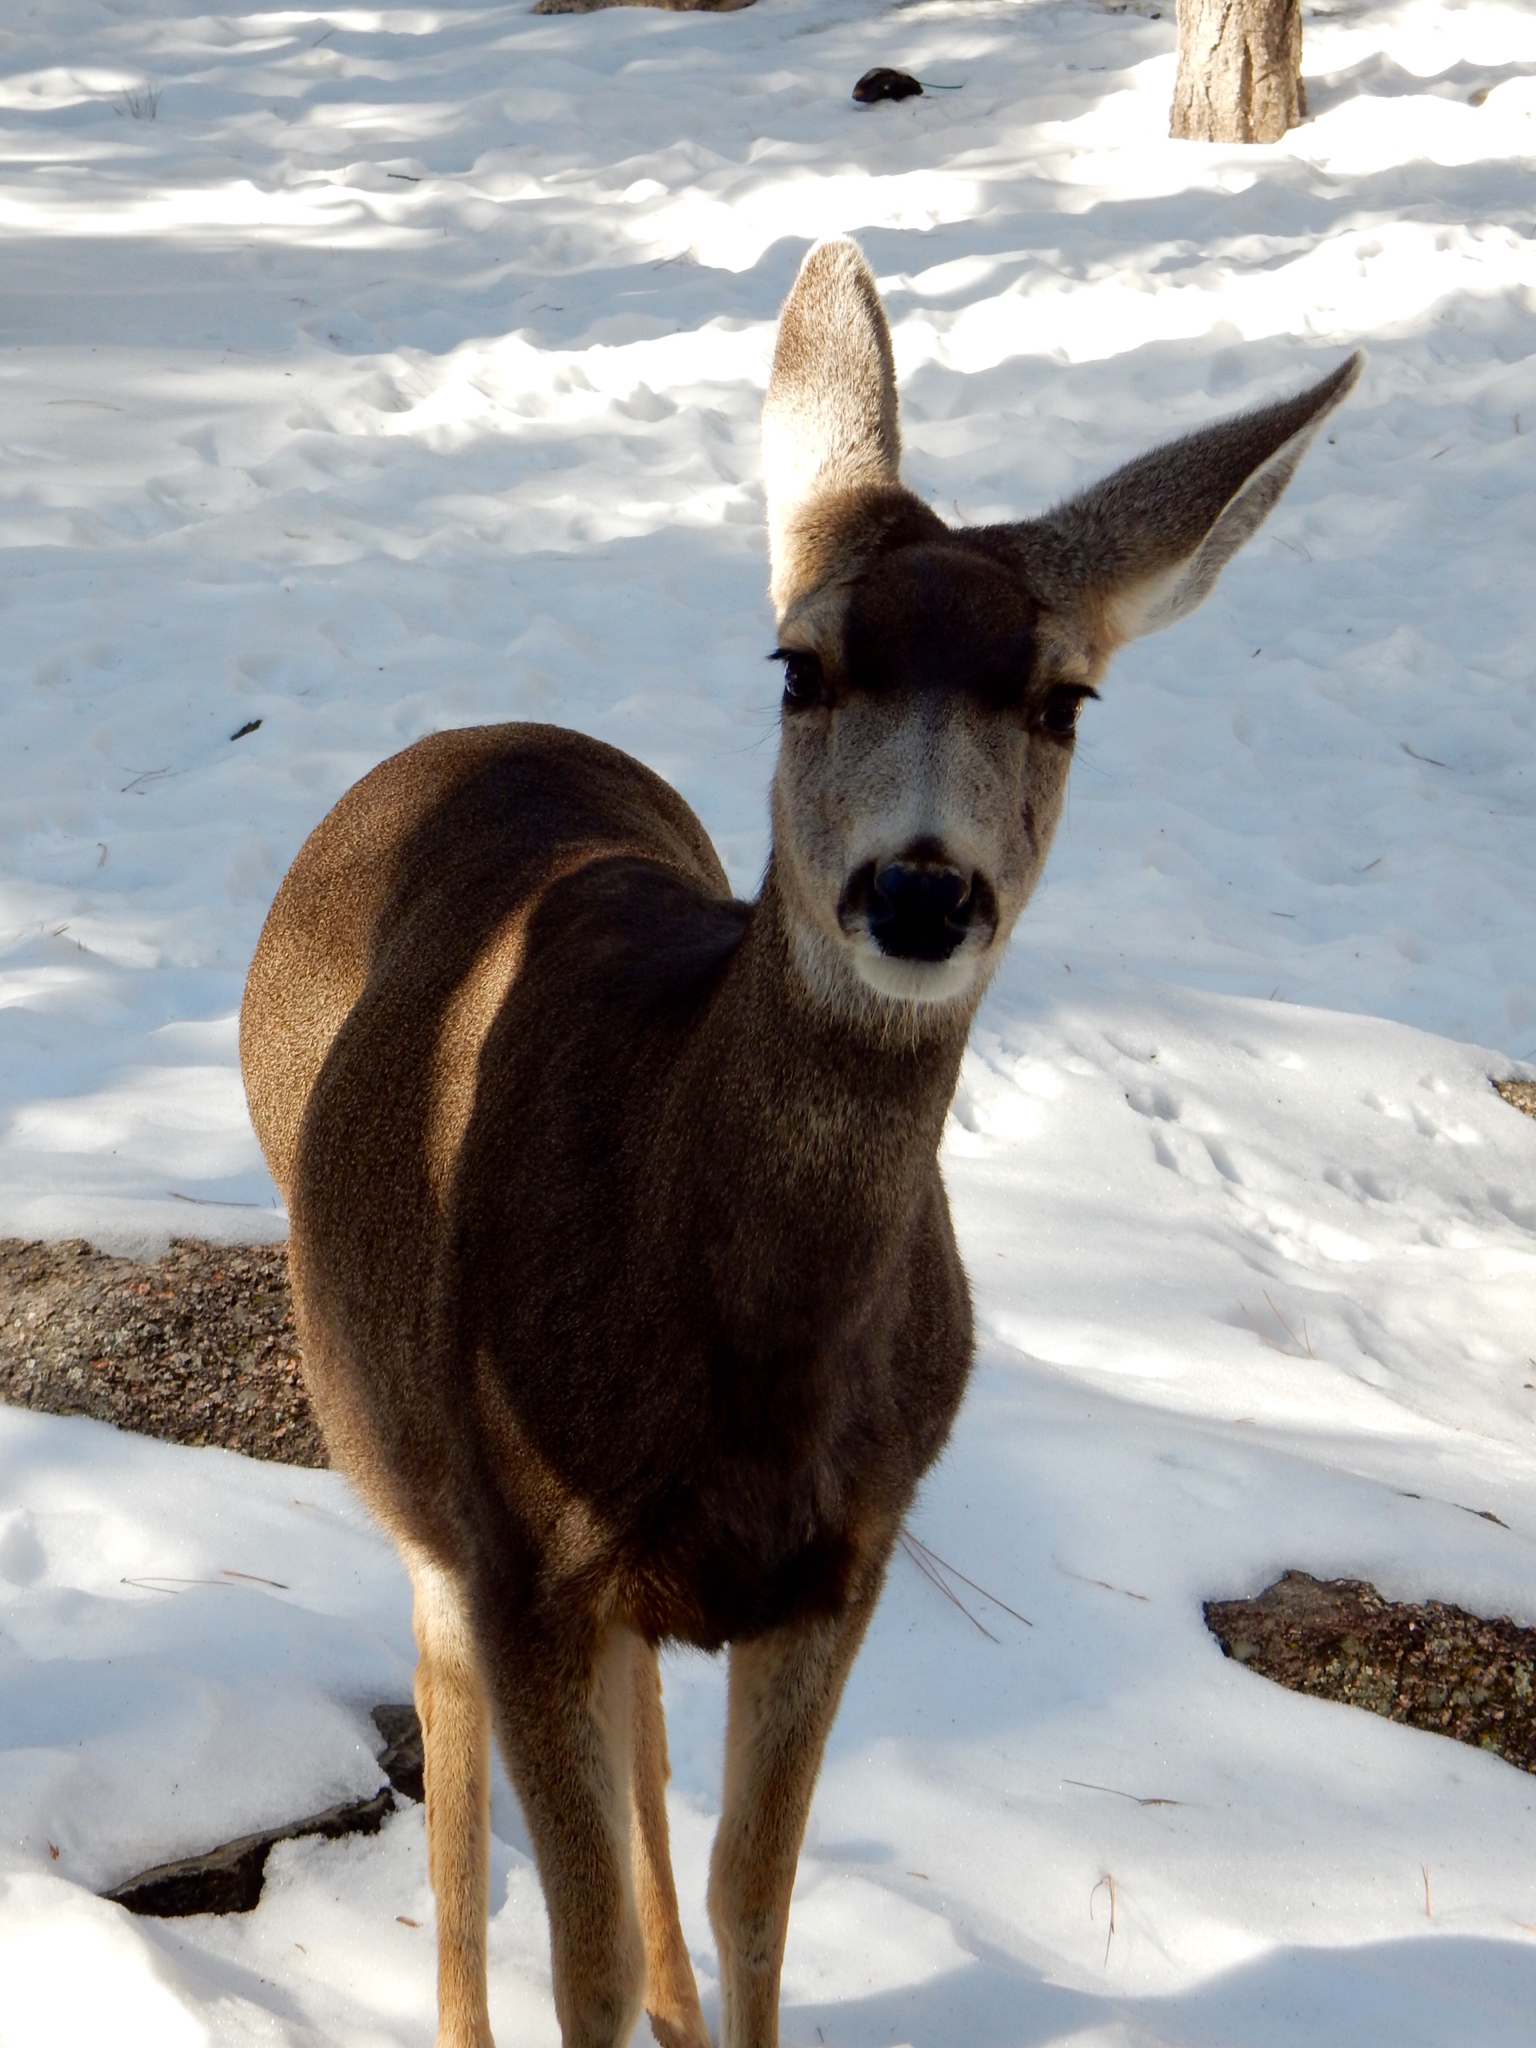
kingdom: Animalia
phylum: Chordata
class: Mammalia
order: Artiodactyla
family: Cervidae
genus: Odocoileus
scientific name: Odocoileus hemionus
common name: Mule deer
